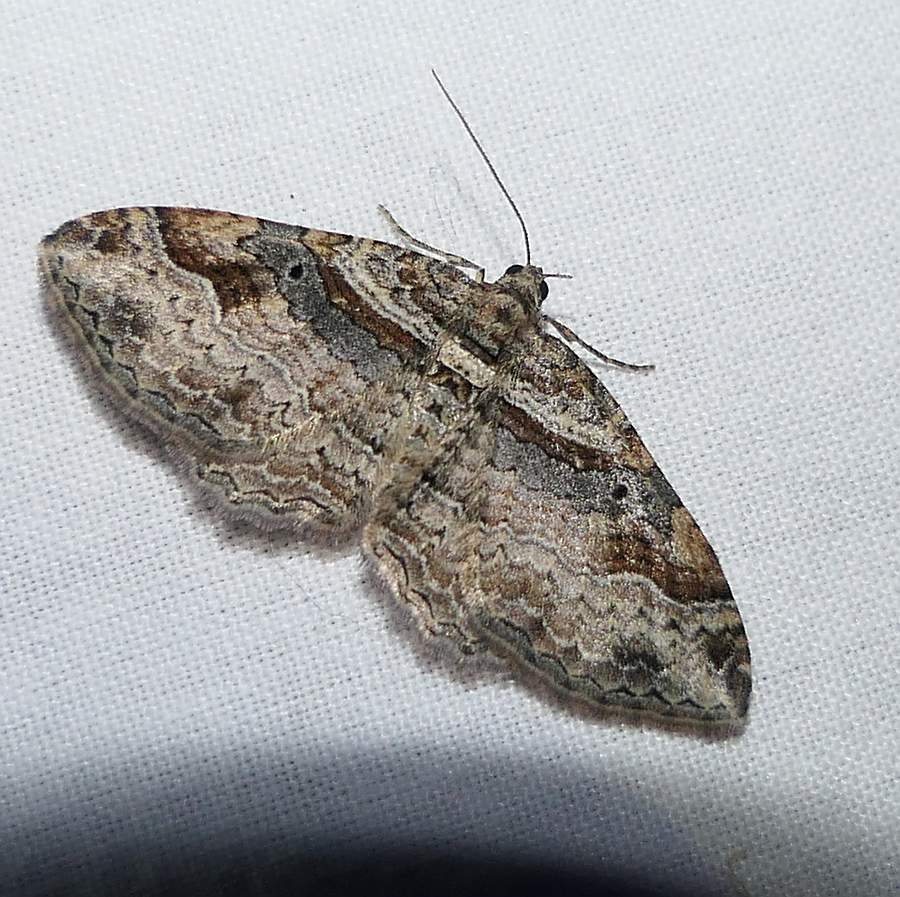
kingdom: Animalia
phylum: Arthropoda
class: Insecta
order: Lepidoptera
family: Geometridae
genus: Costaconvexa
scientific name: Costaconvexa centrostrigaria
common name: Bent-line carpet
